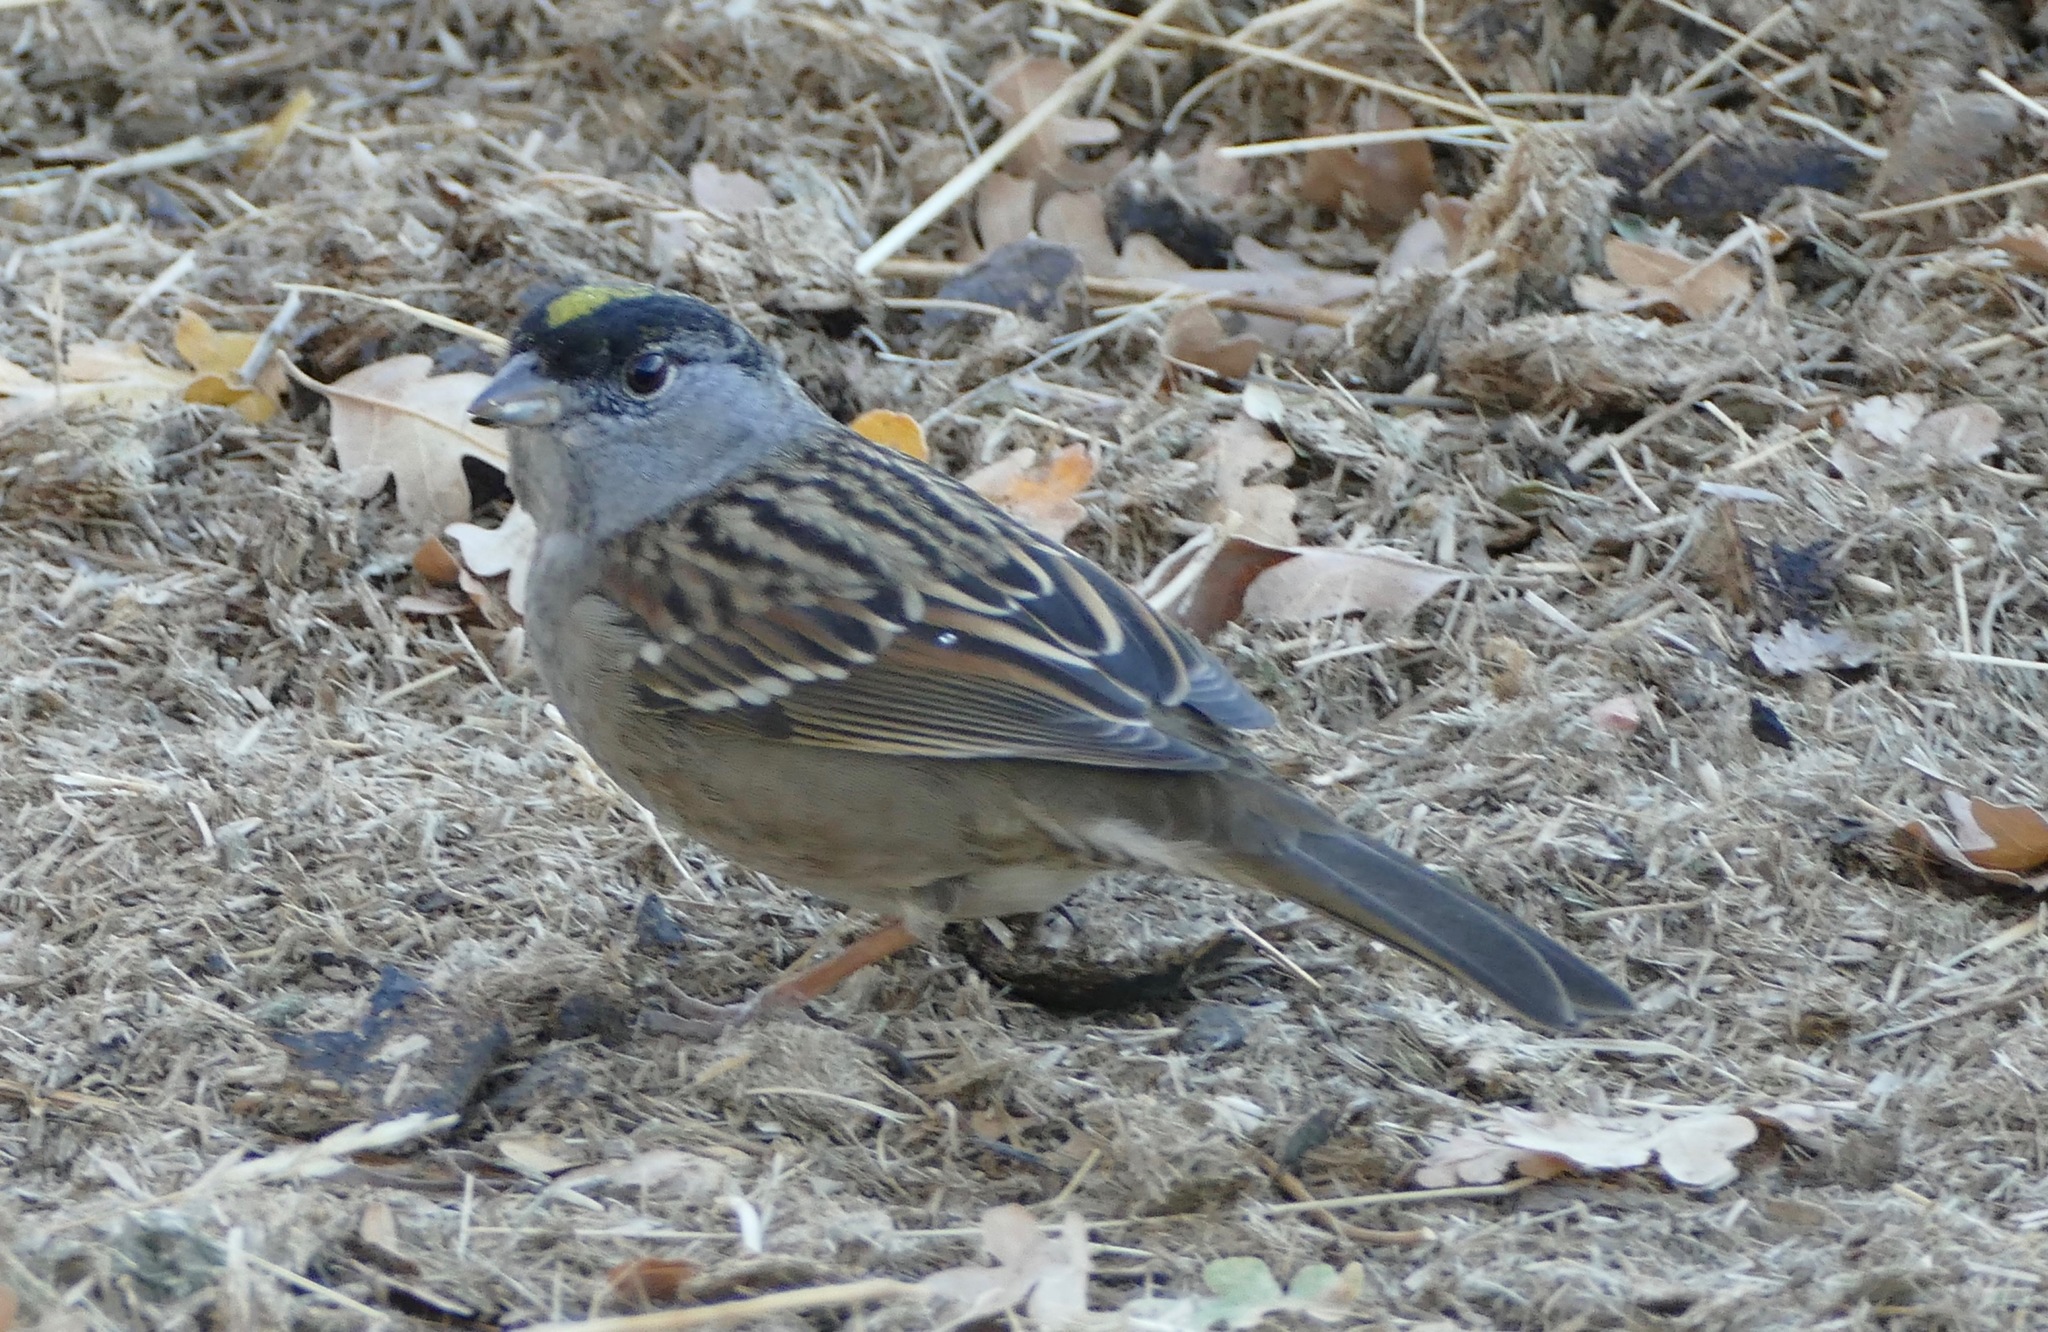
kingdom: Animalia
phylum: Chordata
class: Aves
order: Passeriformes
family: Passerellidae
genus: Zonotrichia
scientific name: Zonotrichia atricapilla
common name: Golden-crowned sparrow
